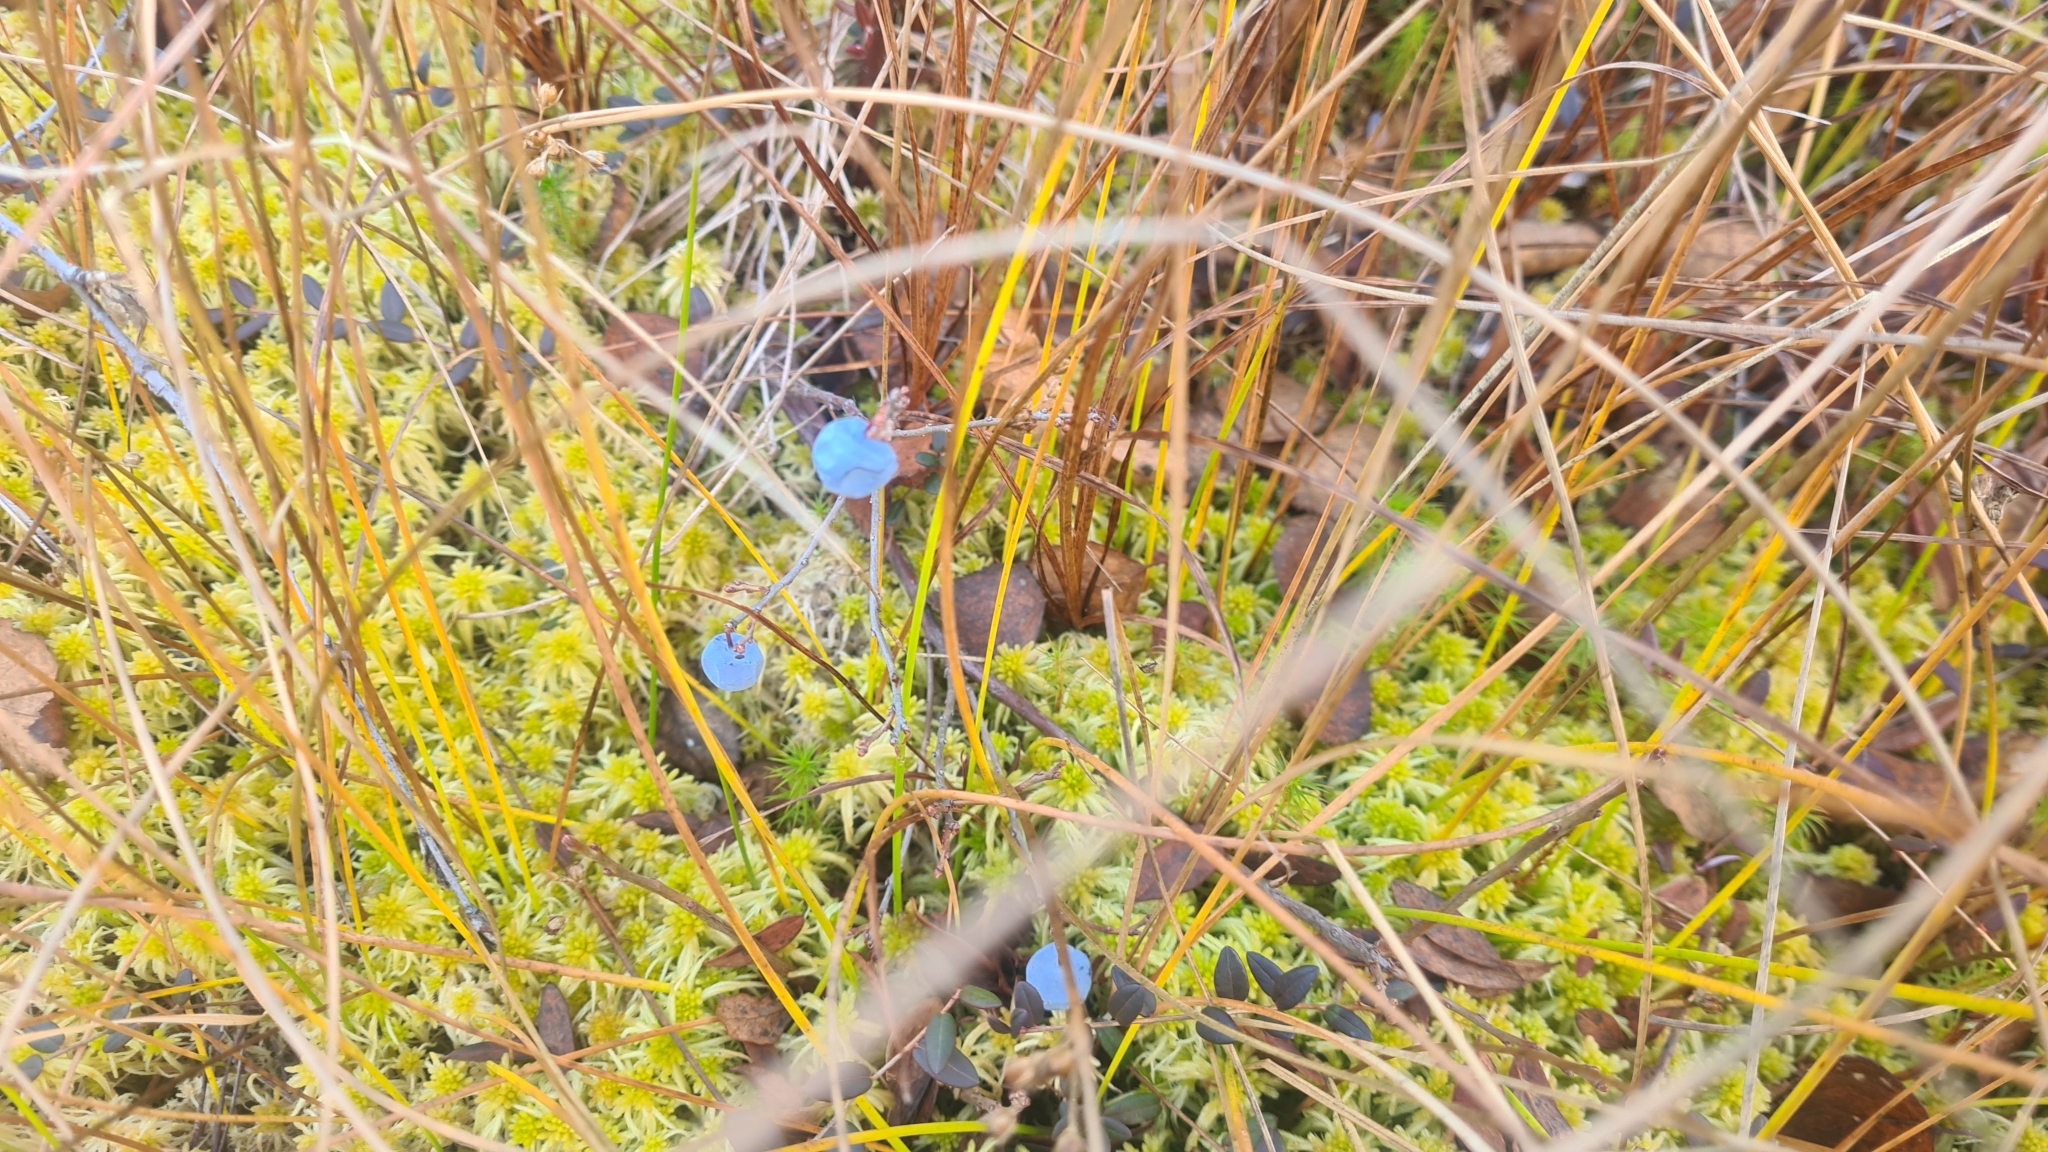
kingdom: Plantae
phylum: Tracheophyta
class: Magnoliopsida
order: Ericales
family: Ericaceae
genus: Vaccinium
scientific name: Vaccinium uliginosum
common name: Bog bilberry
